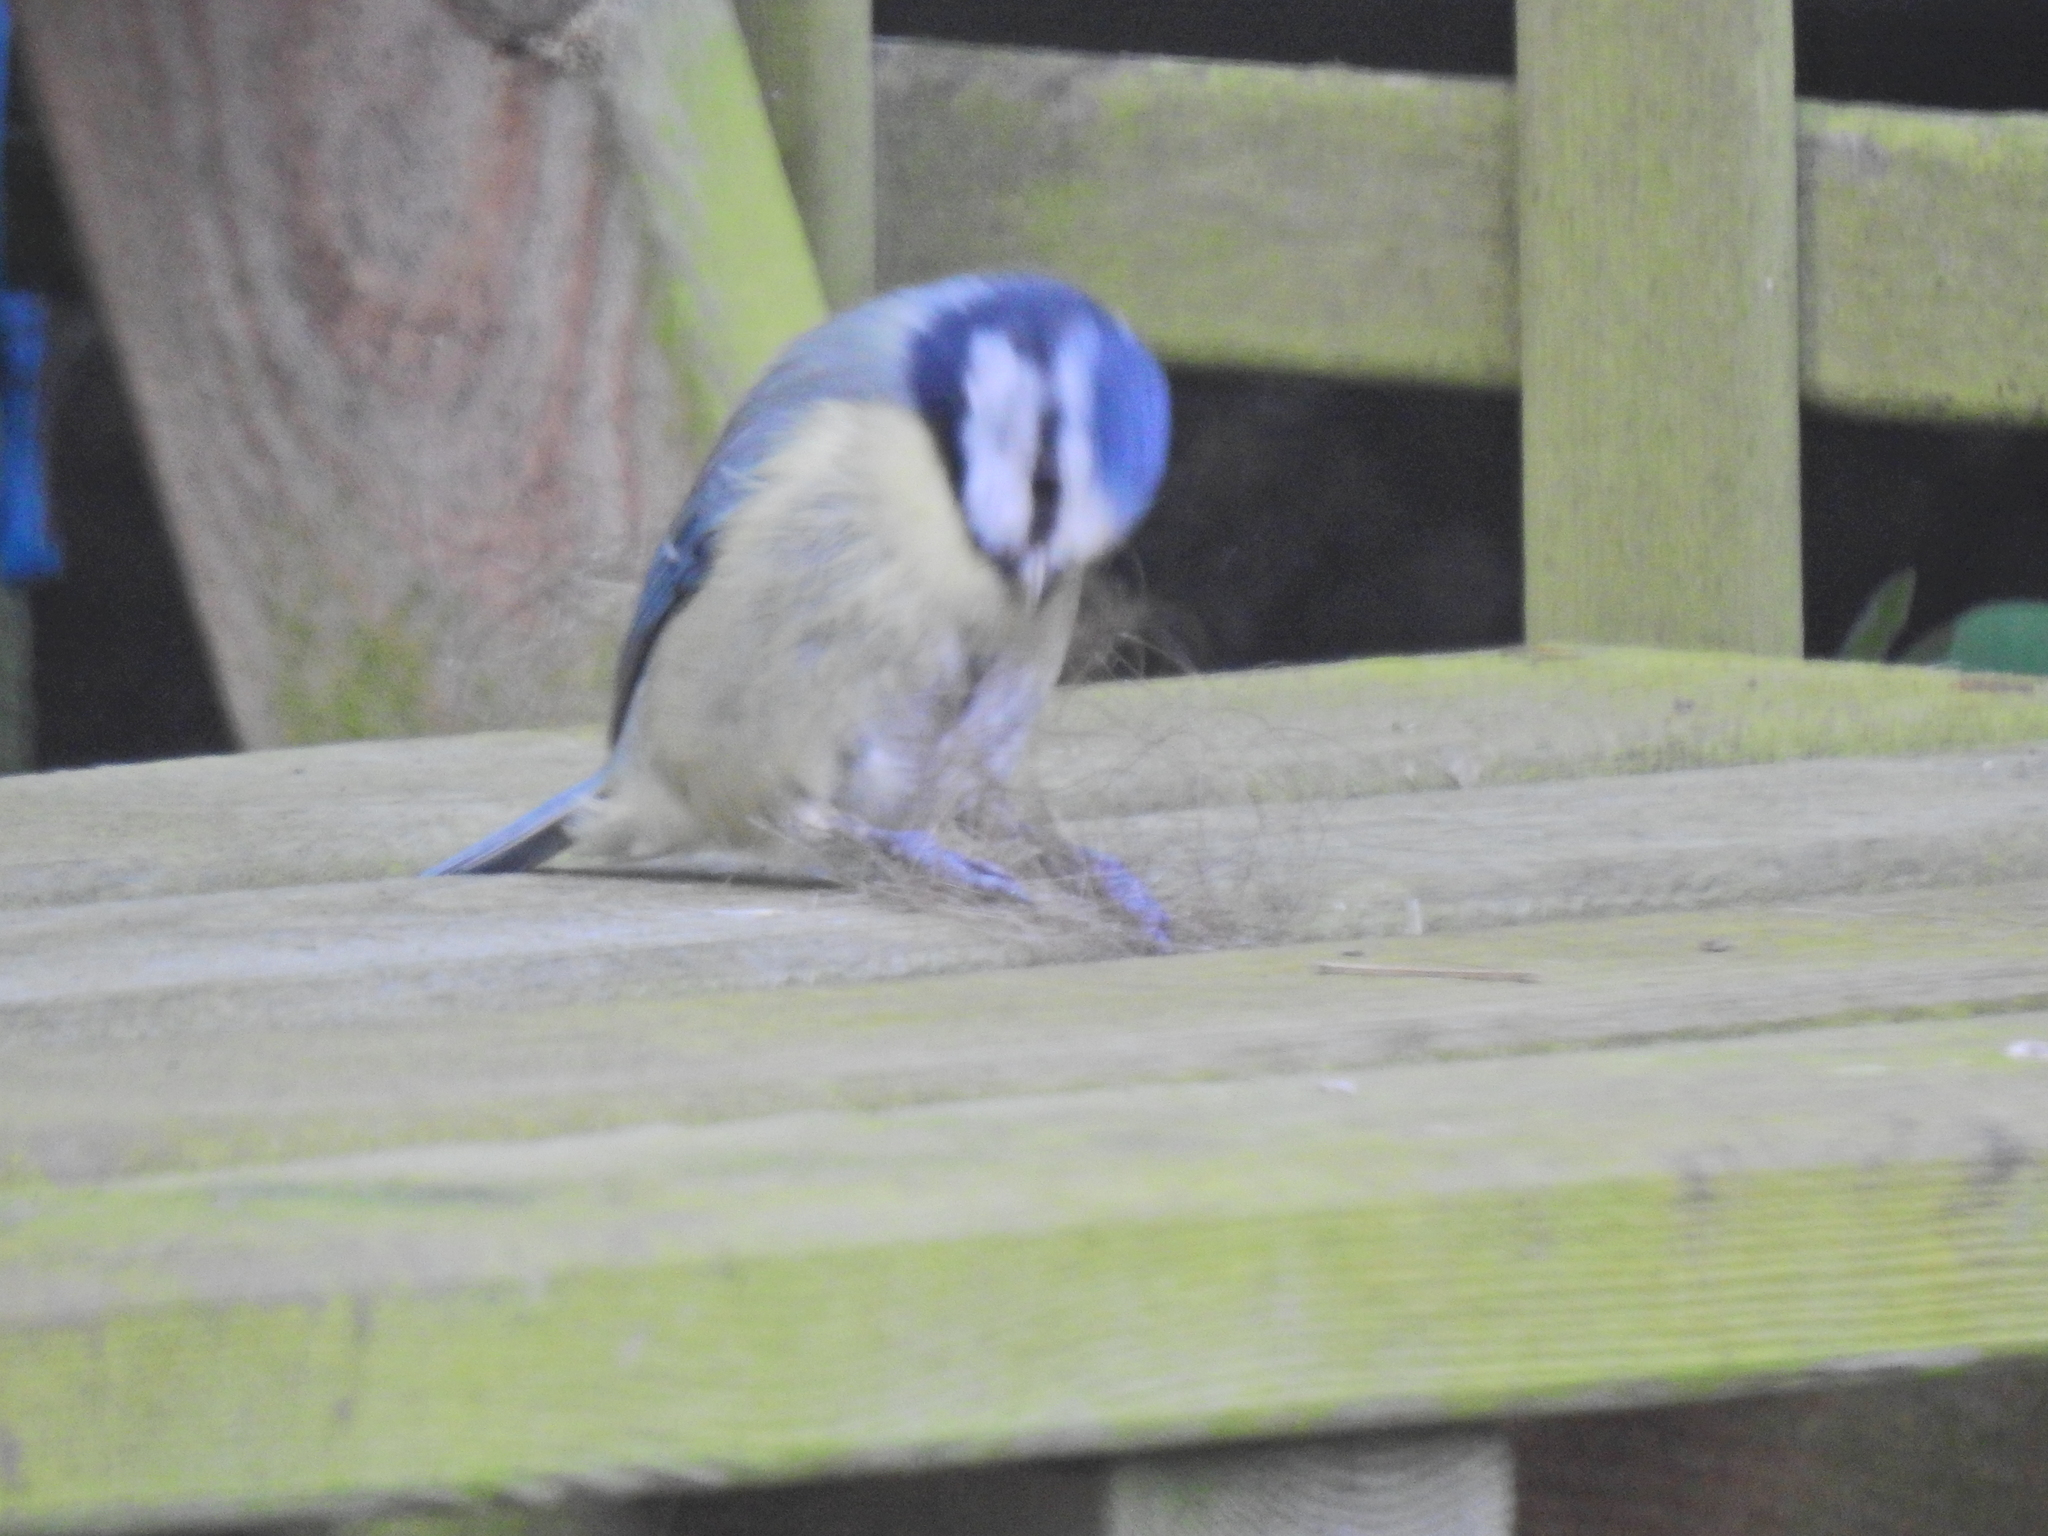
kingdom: Animalia
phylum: Chordata
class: Aves
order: Passeriformes
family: Paridae
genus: Cyanistes
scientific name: Cyanistes caeruleus
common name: Eurasian blue tit
